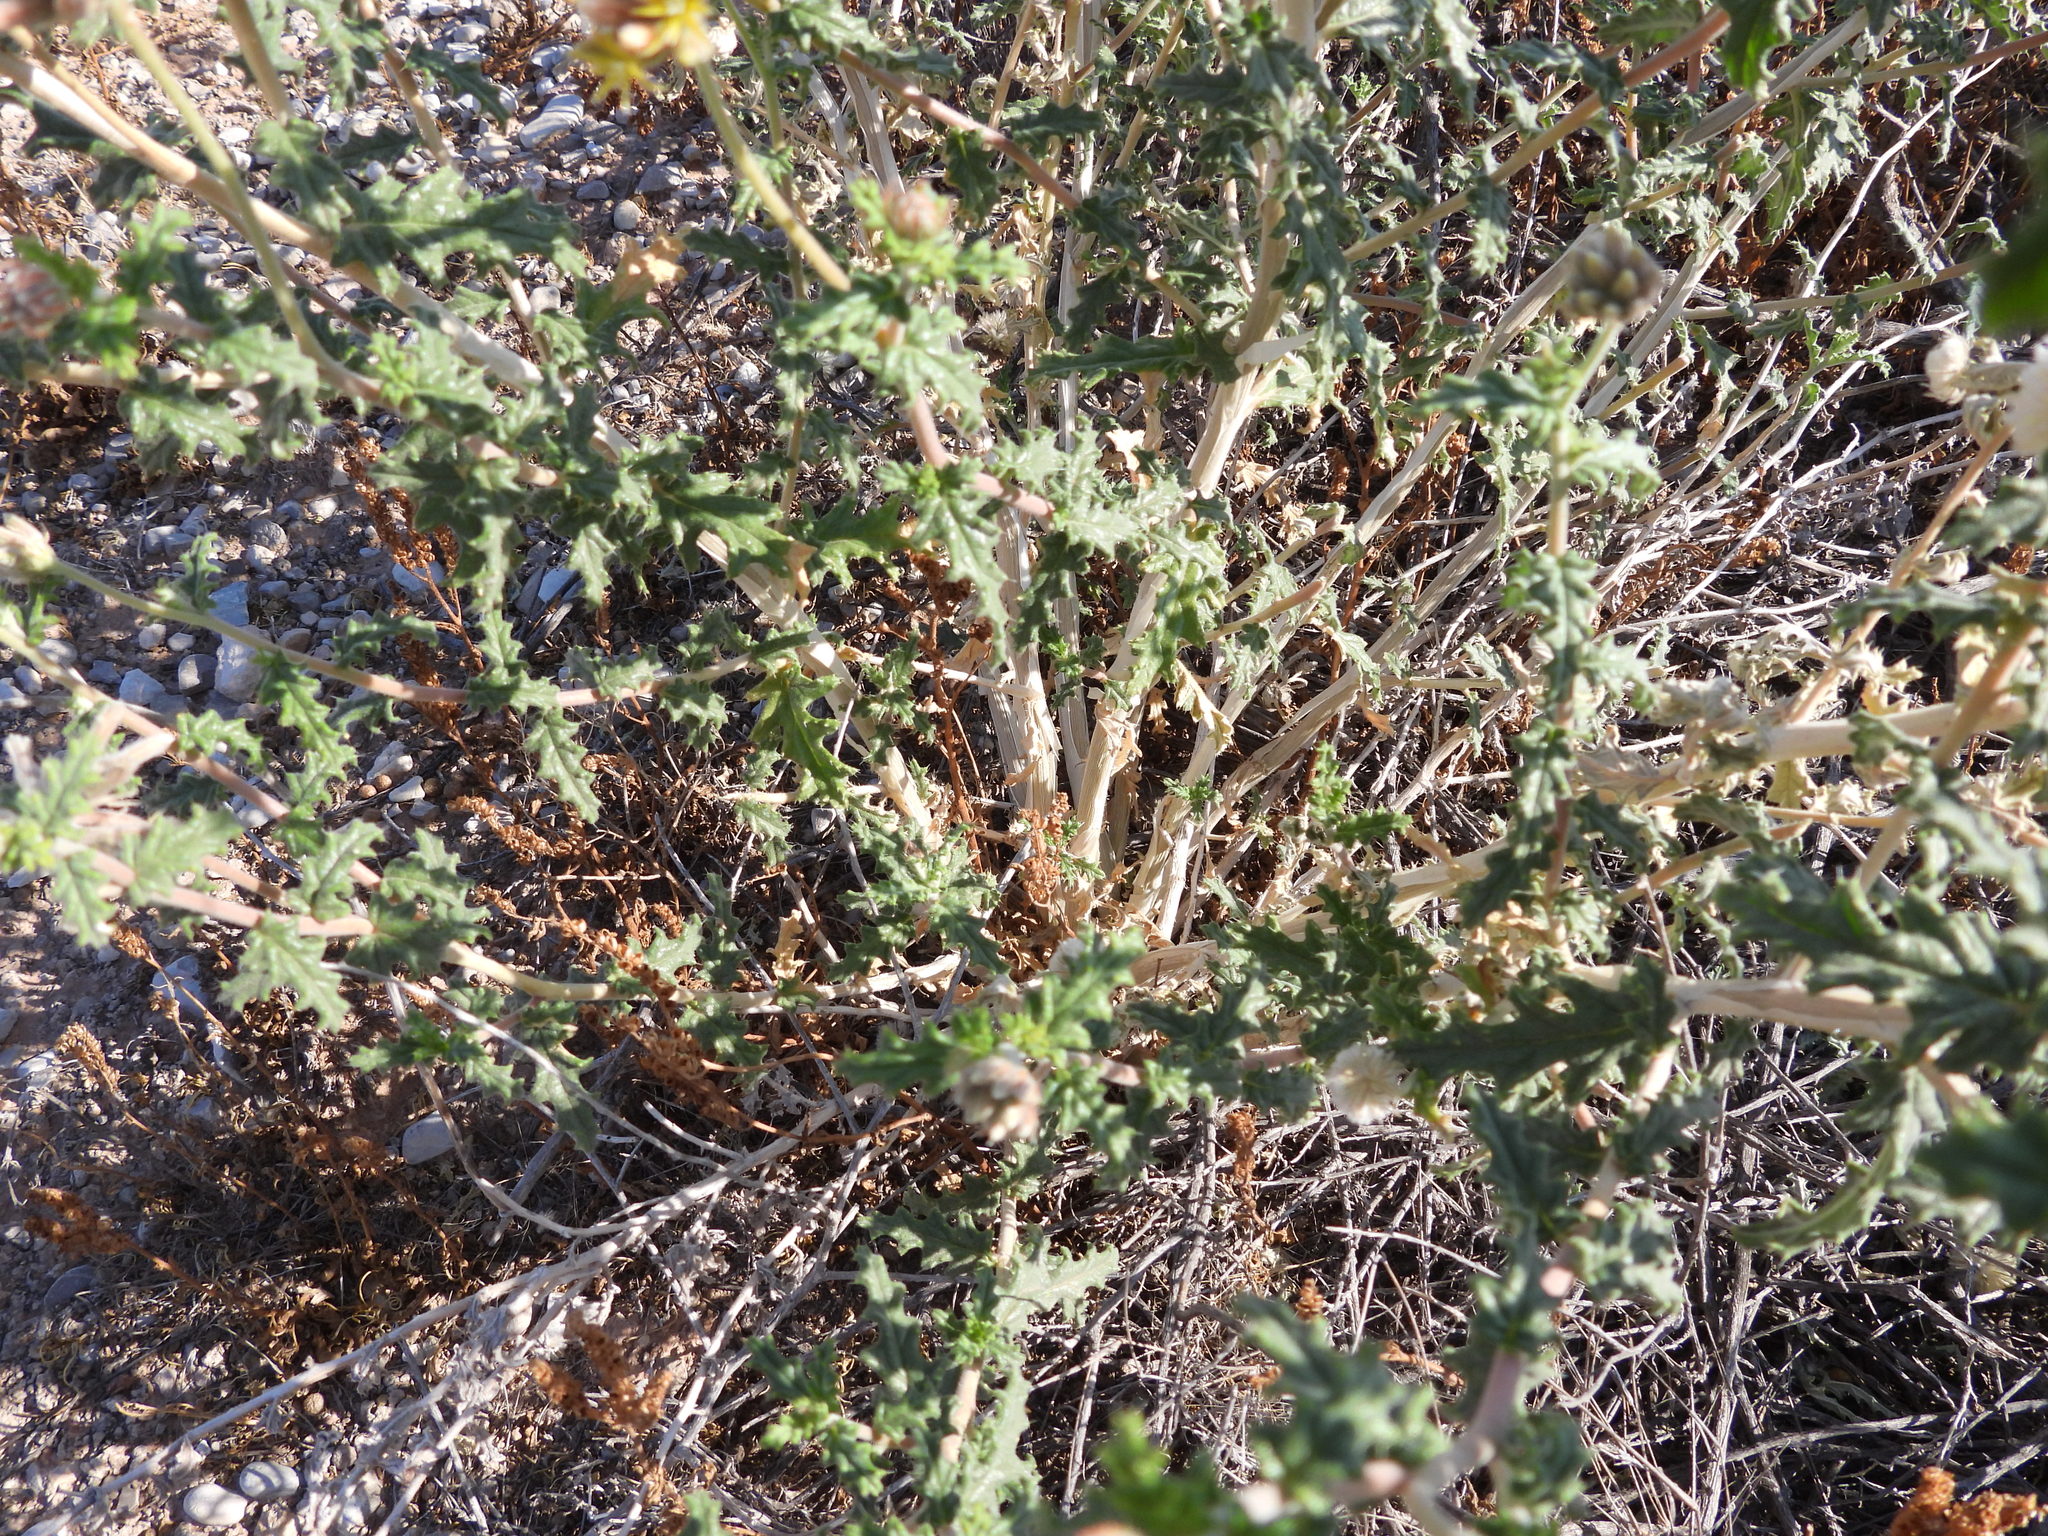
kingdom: Plantae
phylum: Tracheophyta
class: Magnoliopsida
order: Cornales
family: Loasaceae
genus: Cevallia
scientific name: Cevallia sinuata
